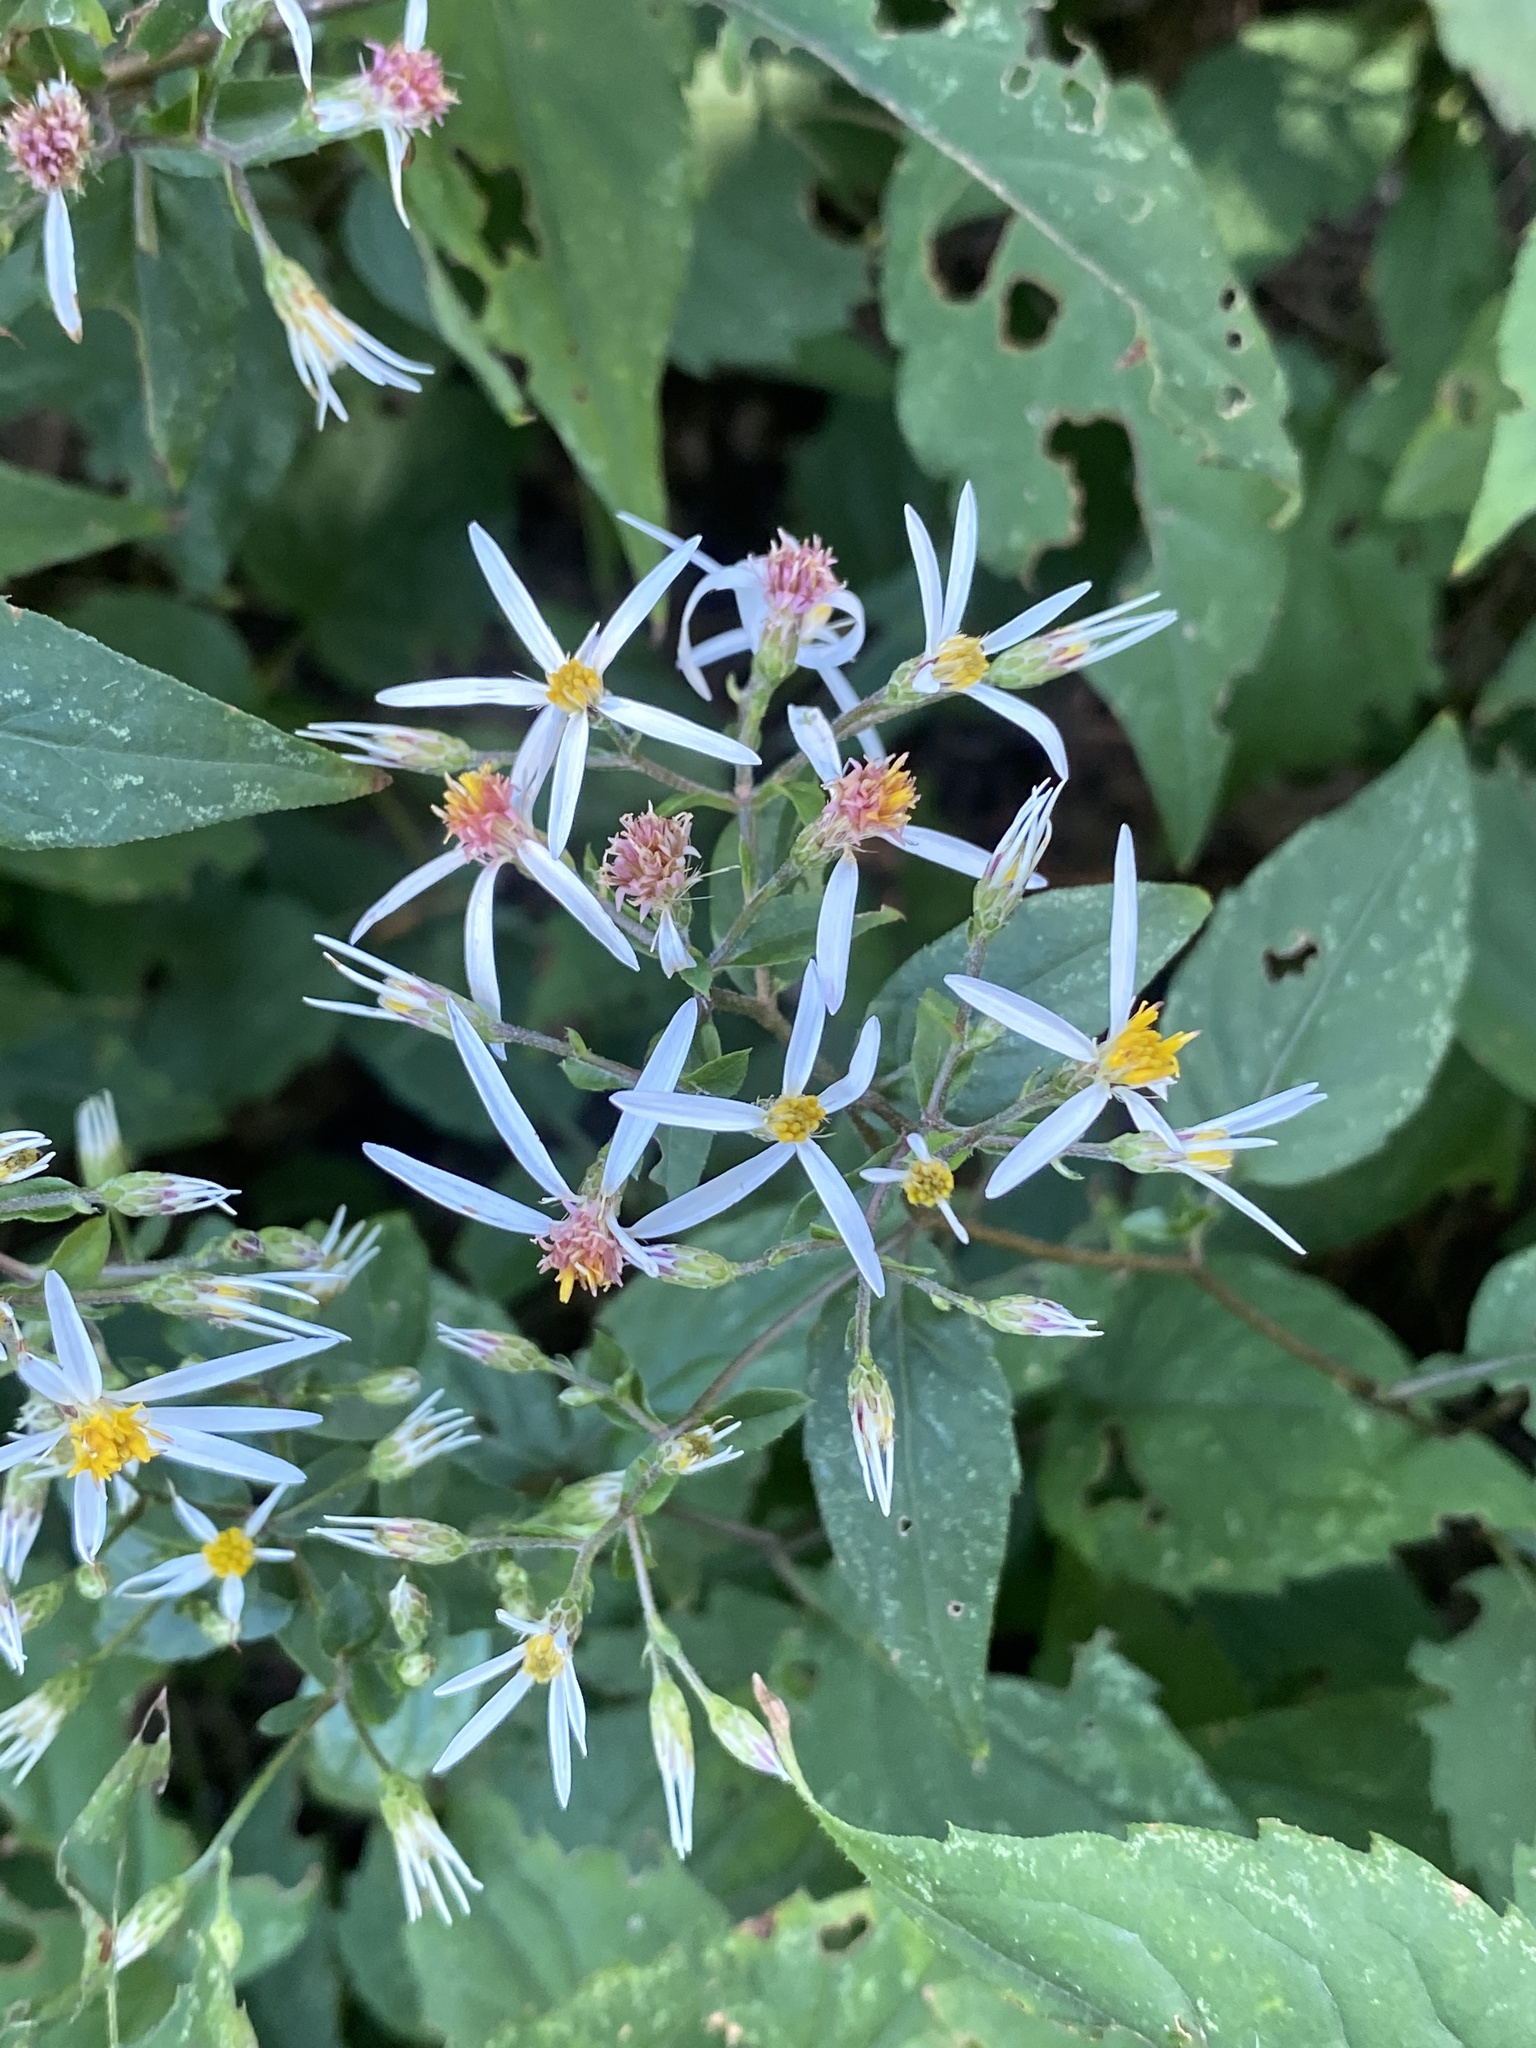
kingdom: Plantae
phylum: Tracheophyta
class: Magnoliopsida
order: Asterales
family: Asteraceae
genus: Eurybia
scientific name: Eurybia divaricata
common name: White wood aster
